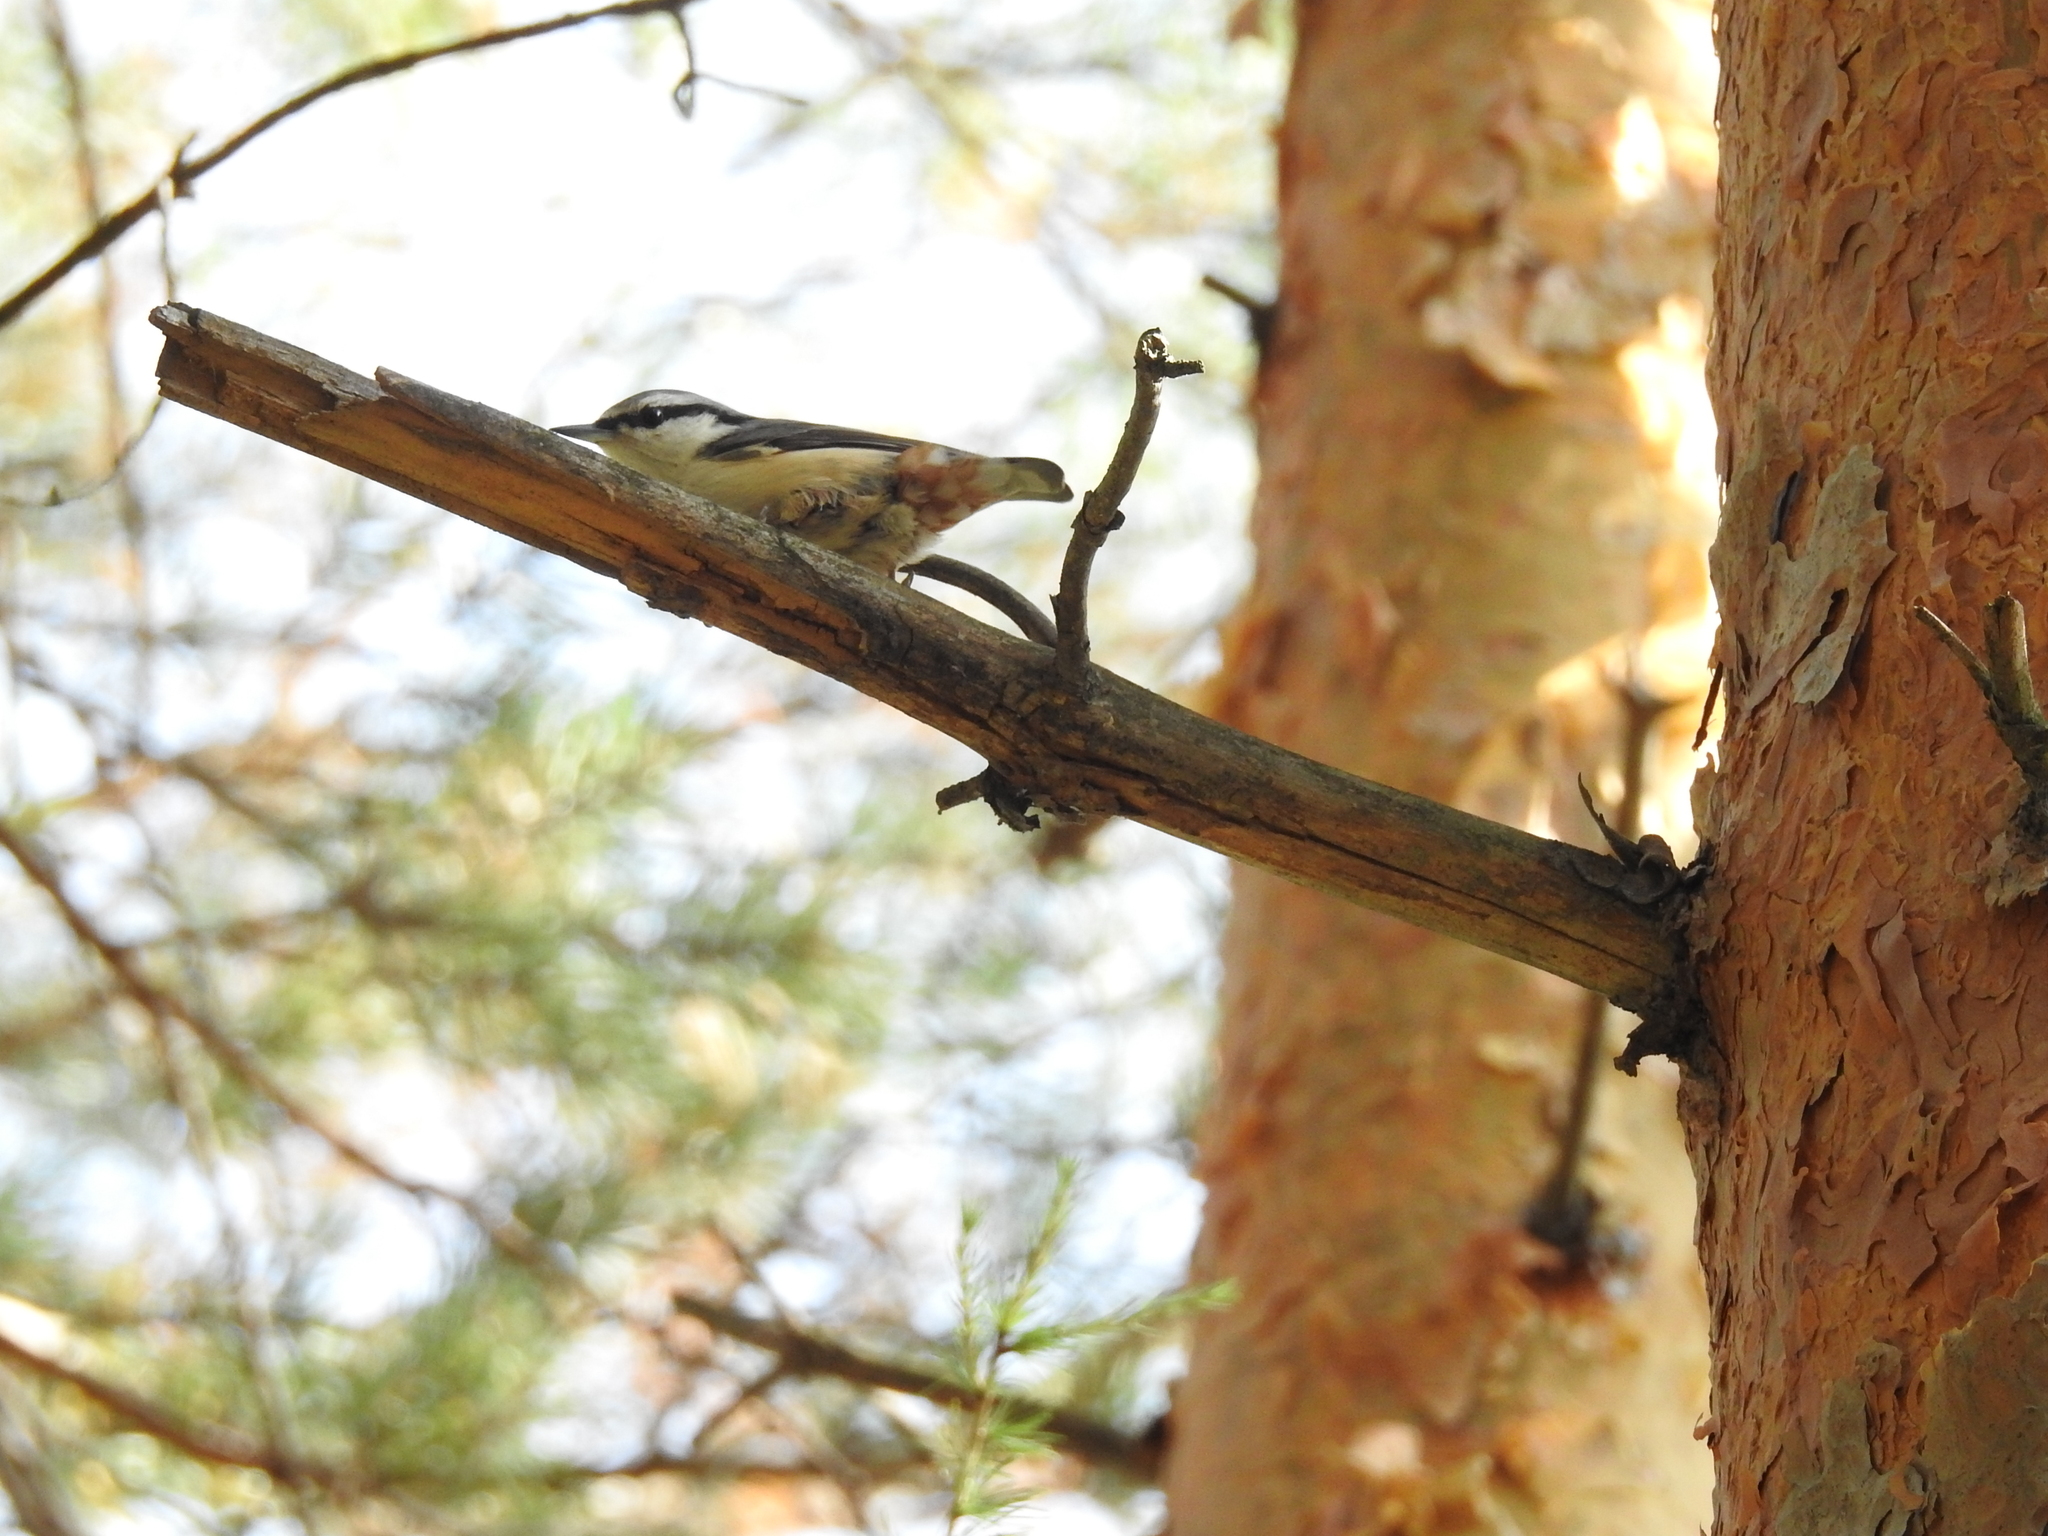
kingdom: Animalia
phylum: Chordata
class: Aves
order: Passeriformes
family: Sittidae
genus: Sitta
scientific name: Sitta europaea
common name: Eurasian nuthatch
